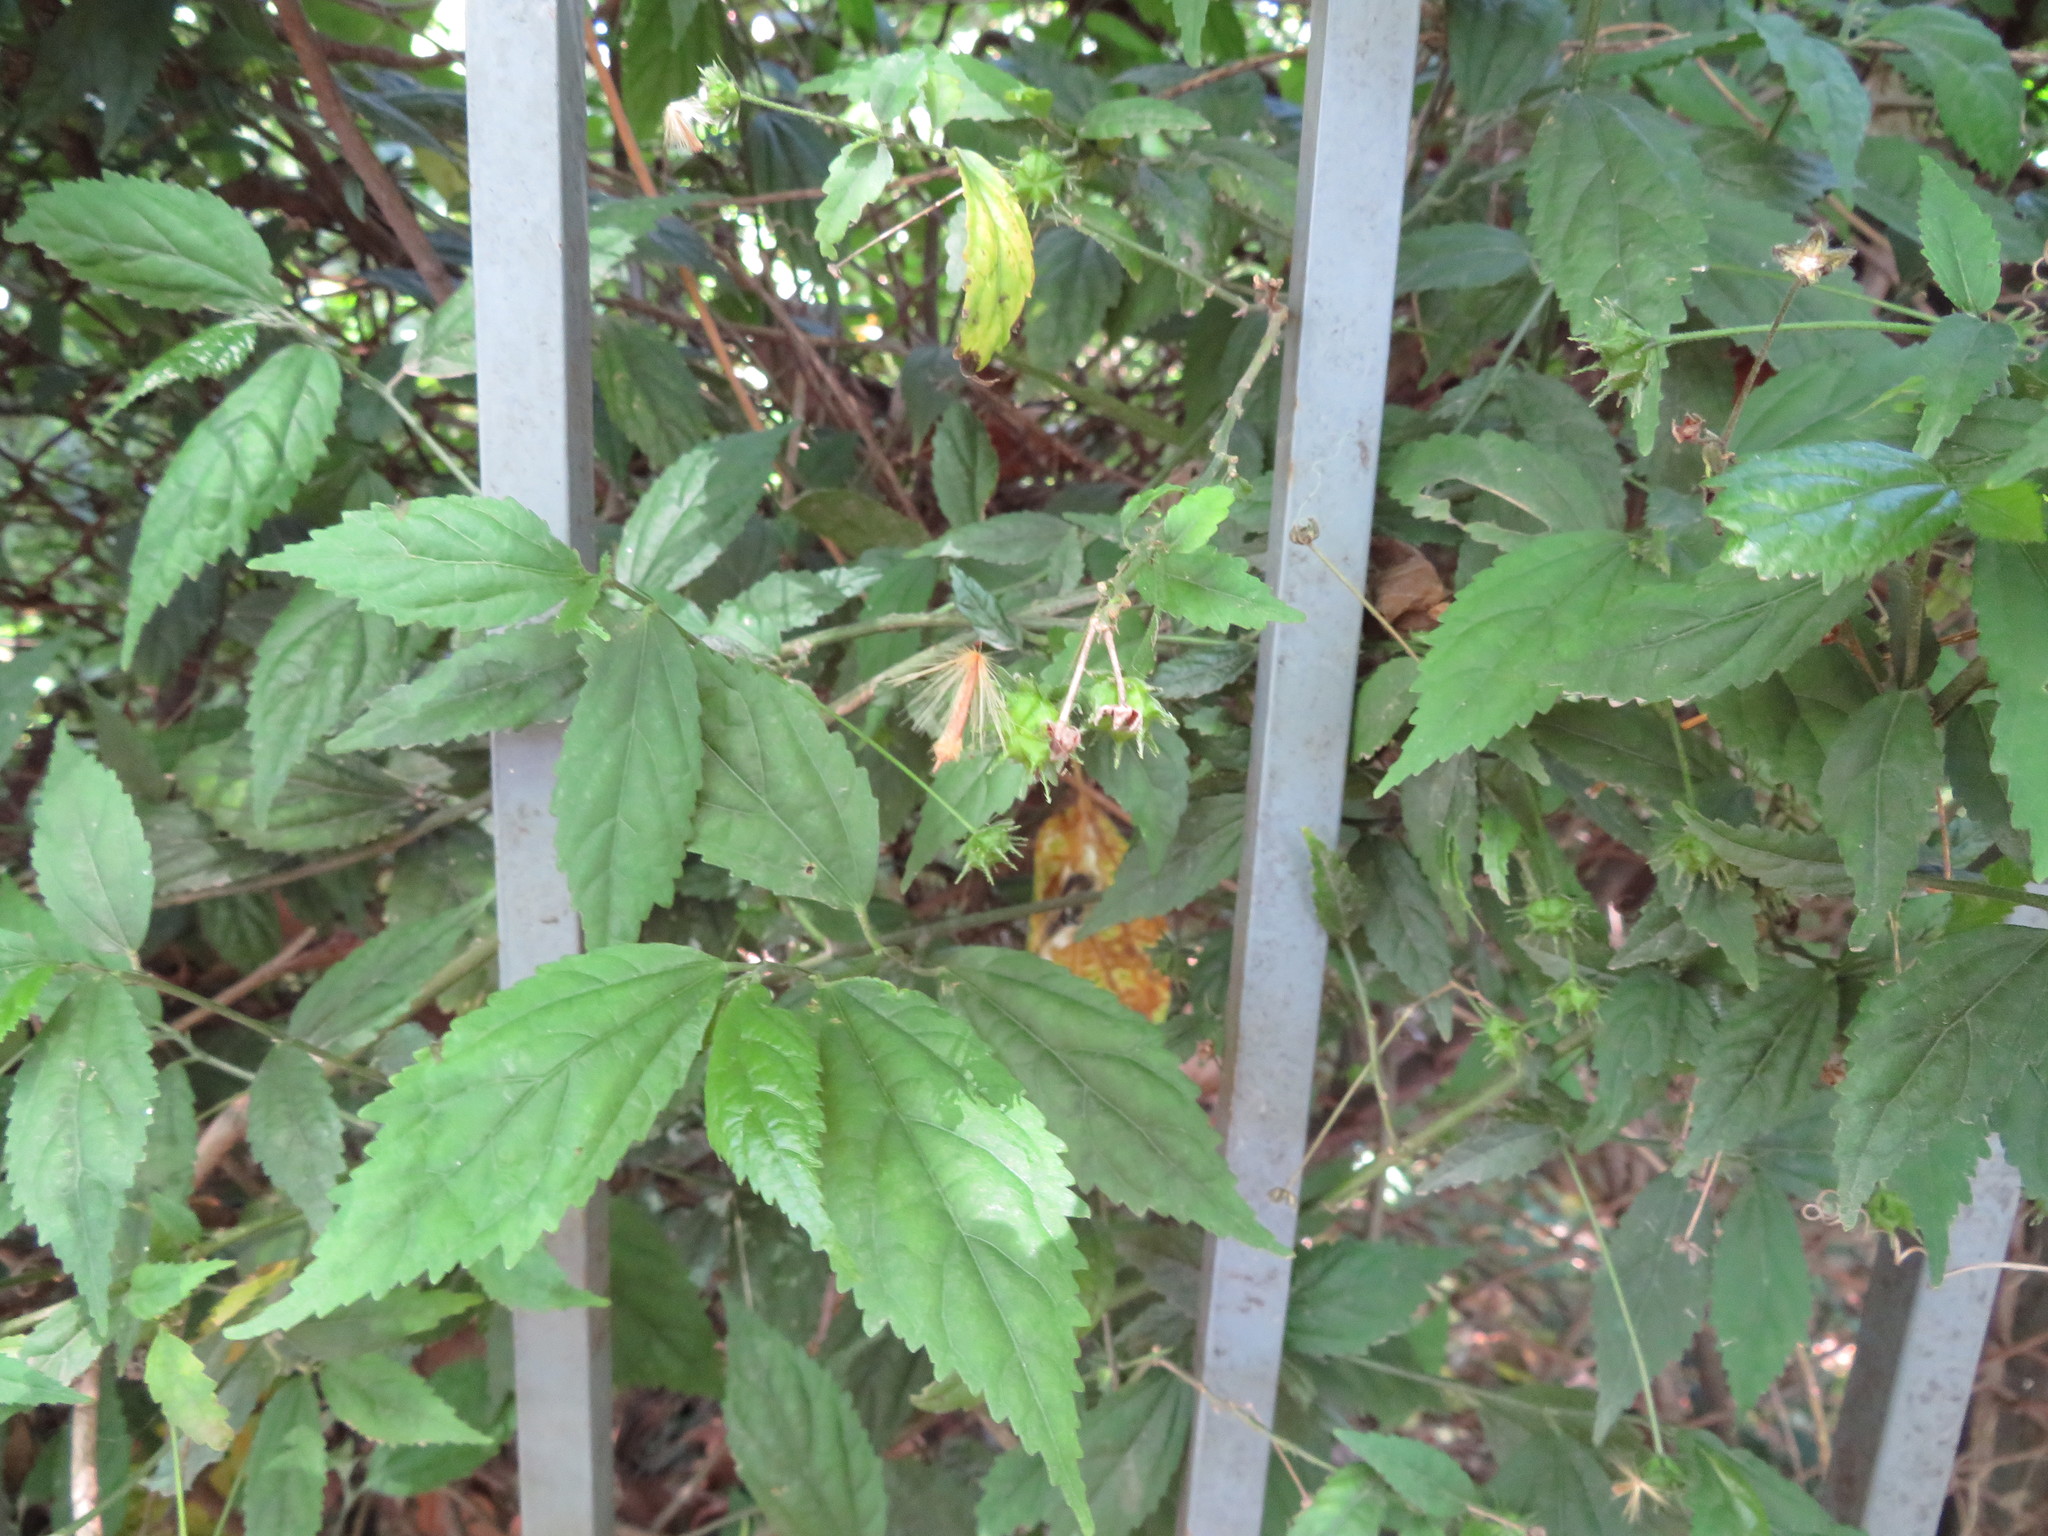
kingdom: Plantae
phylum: Tracheophyta
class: Magnoliopsida
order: Malvales
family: Malvaceae
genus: Pavonia
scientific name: Pavonia sepium
